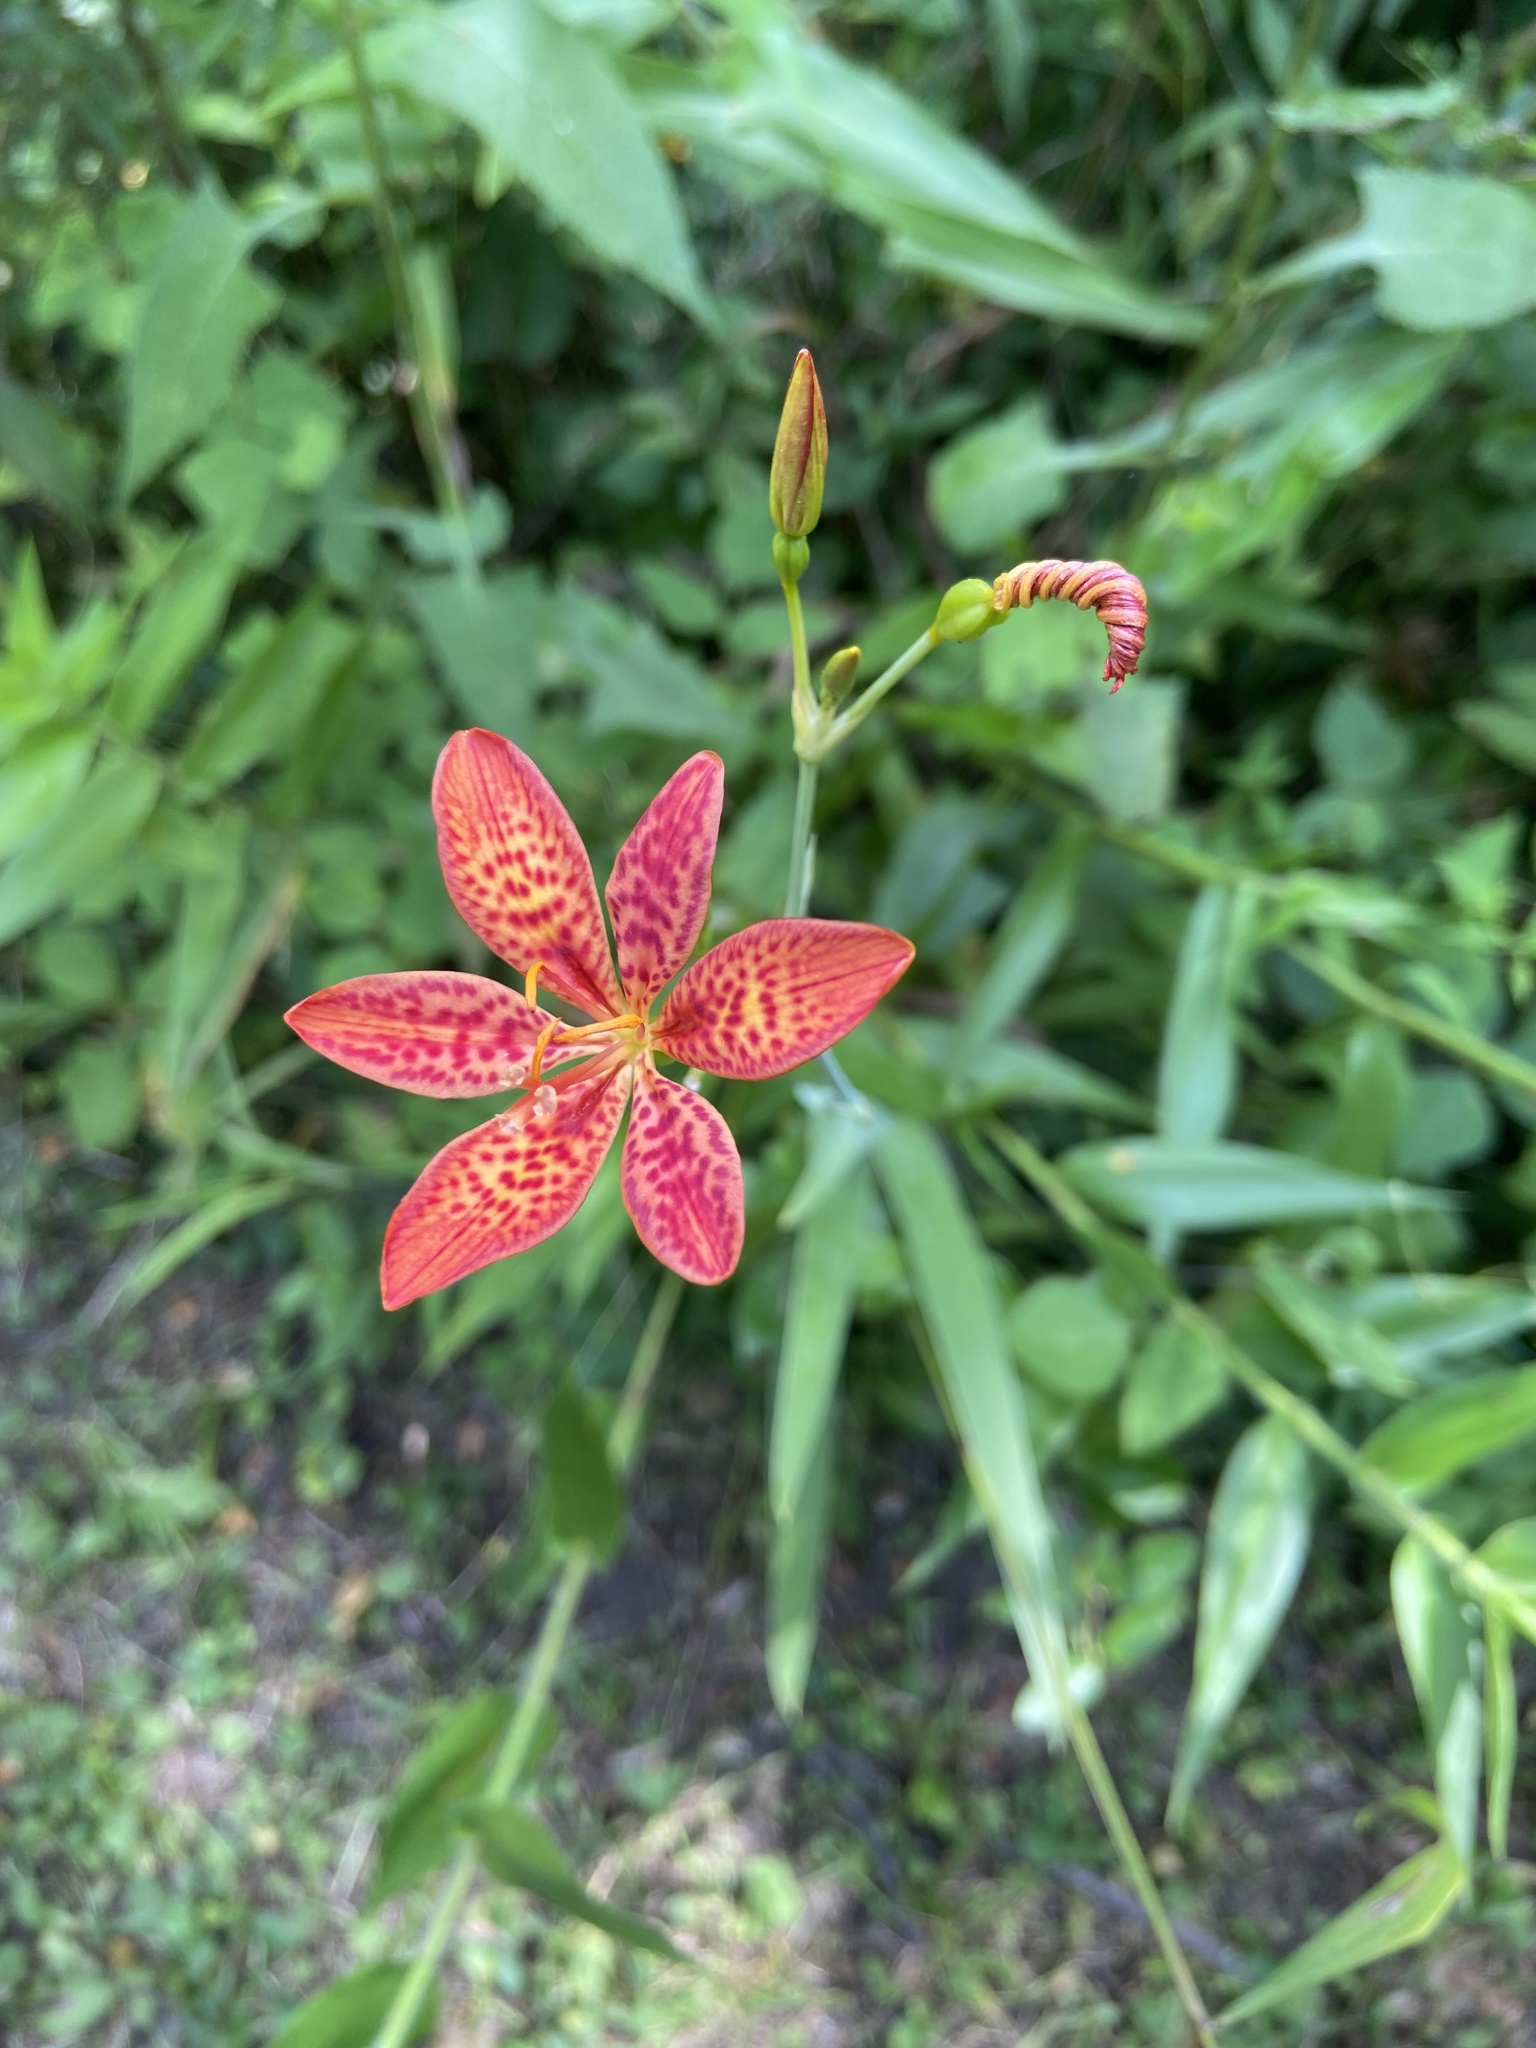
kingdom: Plantae
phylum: Tracheophyta
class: Liliopsida
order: Asparagales
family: Iridaceae
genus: Iris
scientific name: Iris domestica
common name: Belamcanda
